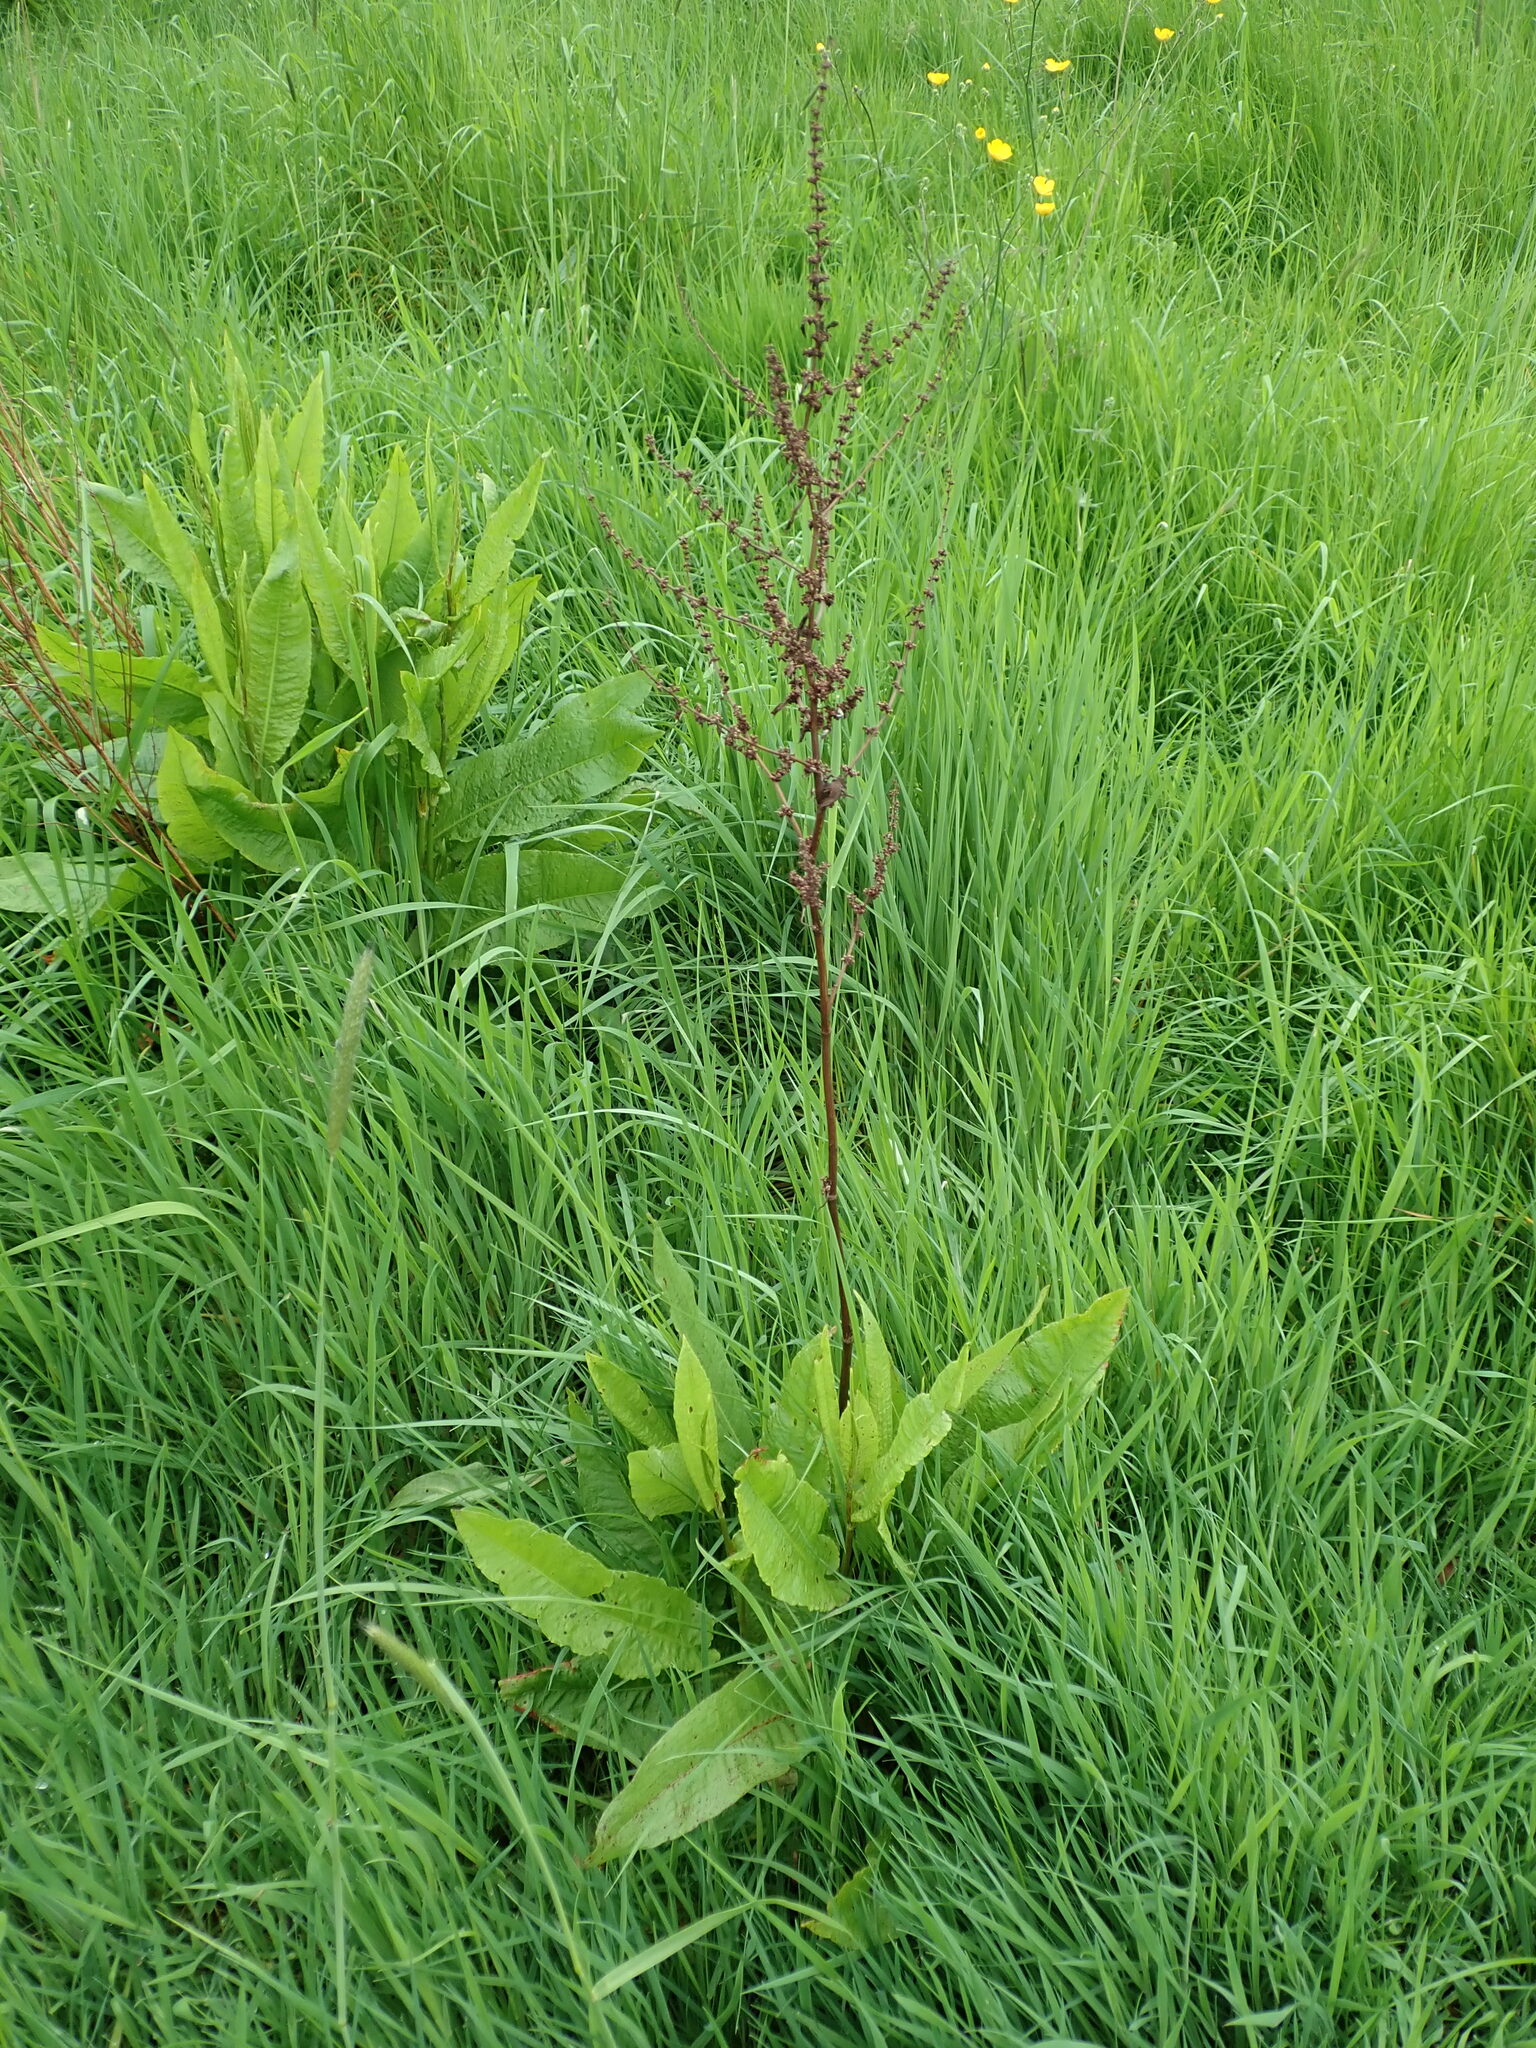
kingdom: Plantae
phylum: Tracheophyta
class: Magnoliopsida
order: Caryophyllales
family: Polygonaceae
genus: Rumex
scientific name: Rumex conglomeratus
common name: Clustered dock
